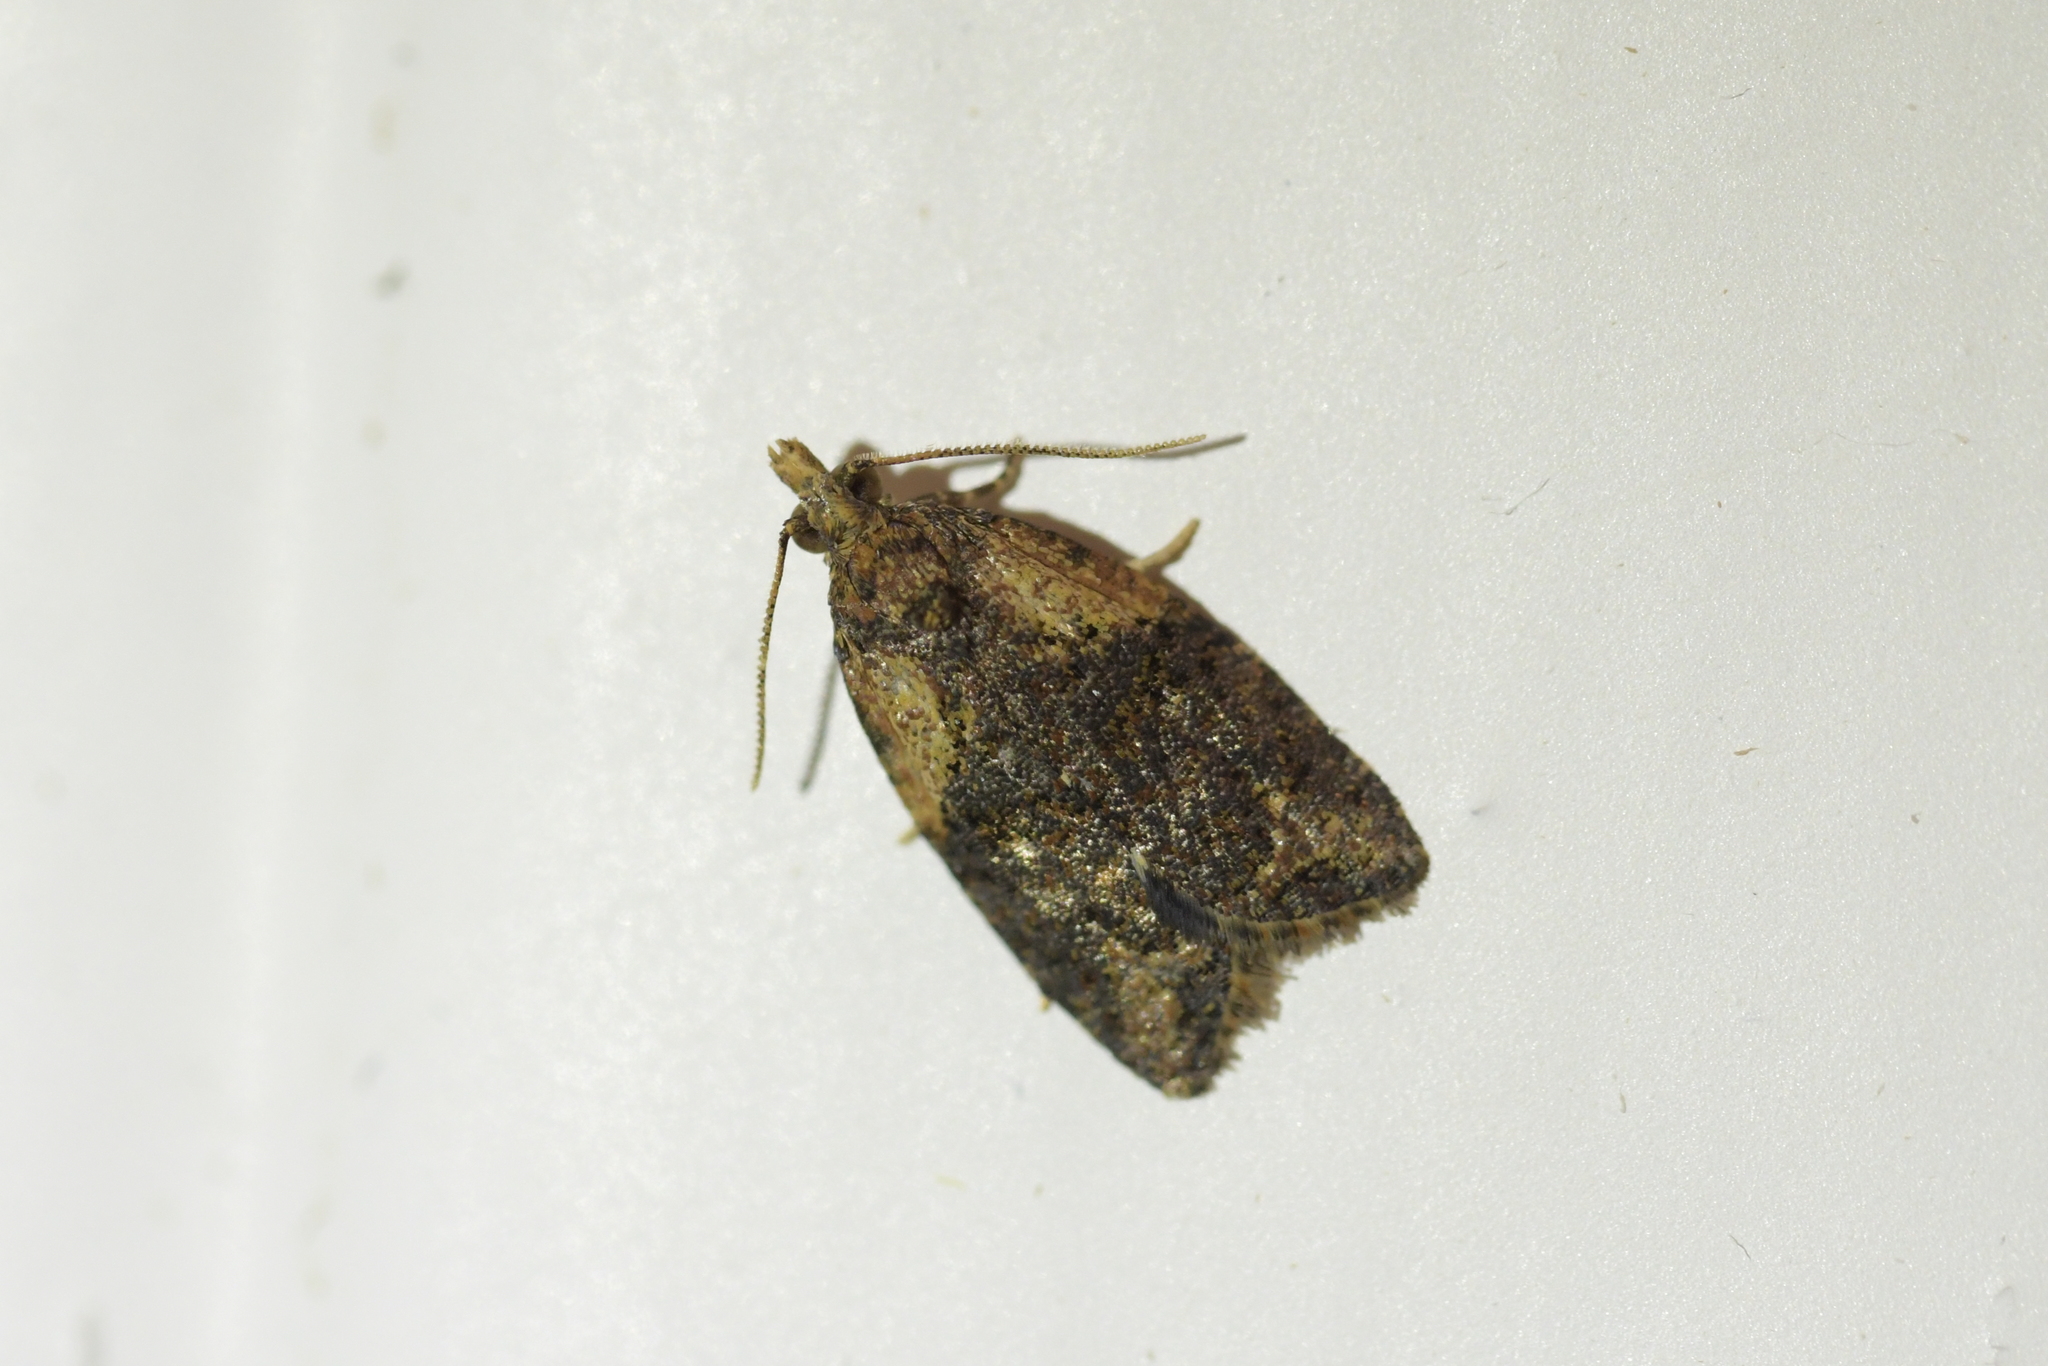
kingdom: Animalia
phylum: Arthropoda
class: Insecta
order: Lepidoptera
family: Tortricidae
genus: Capua
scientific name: Capua intractana
